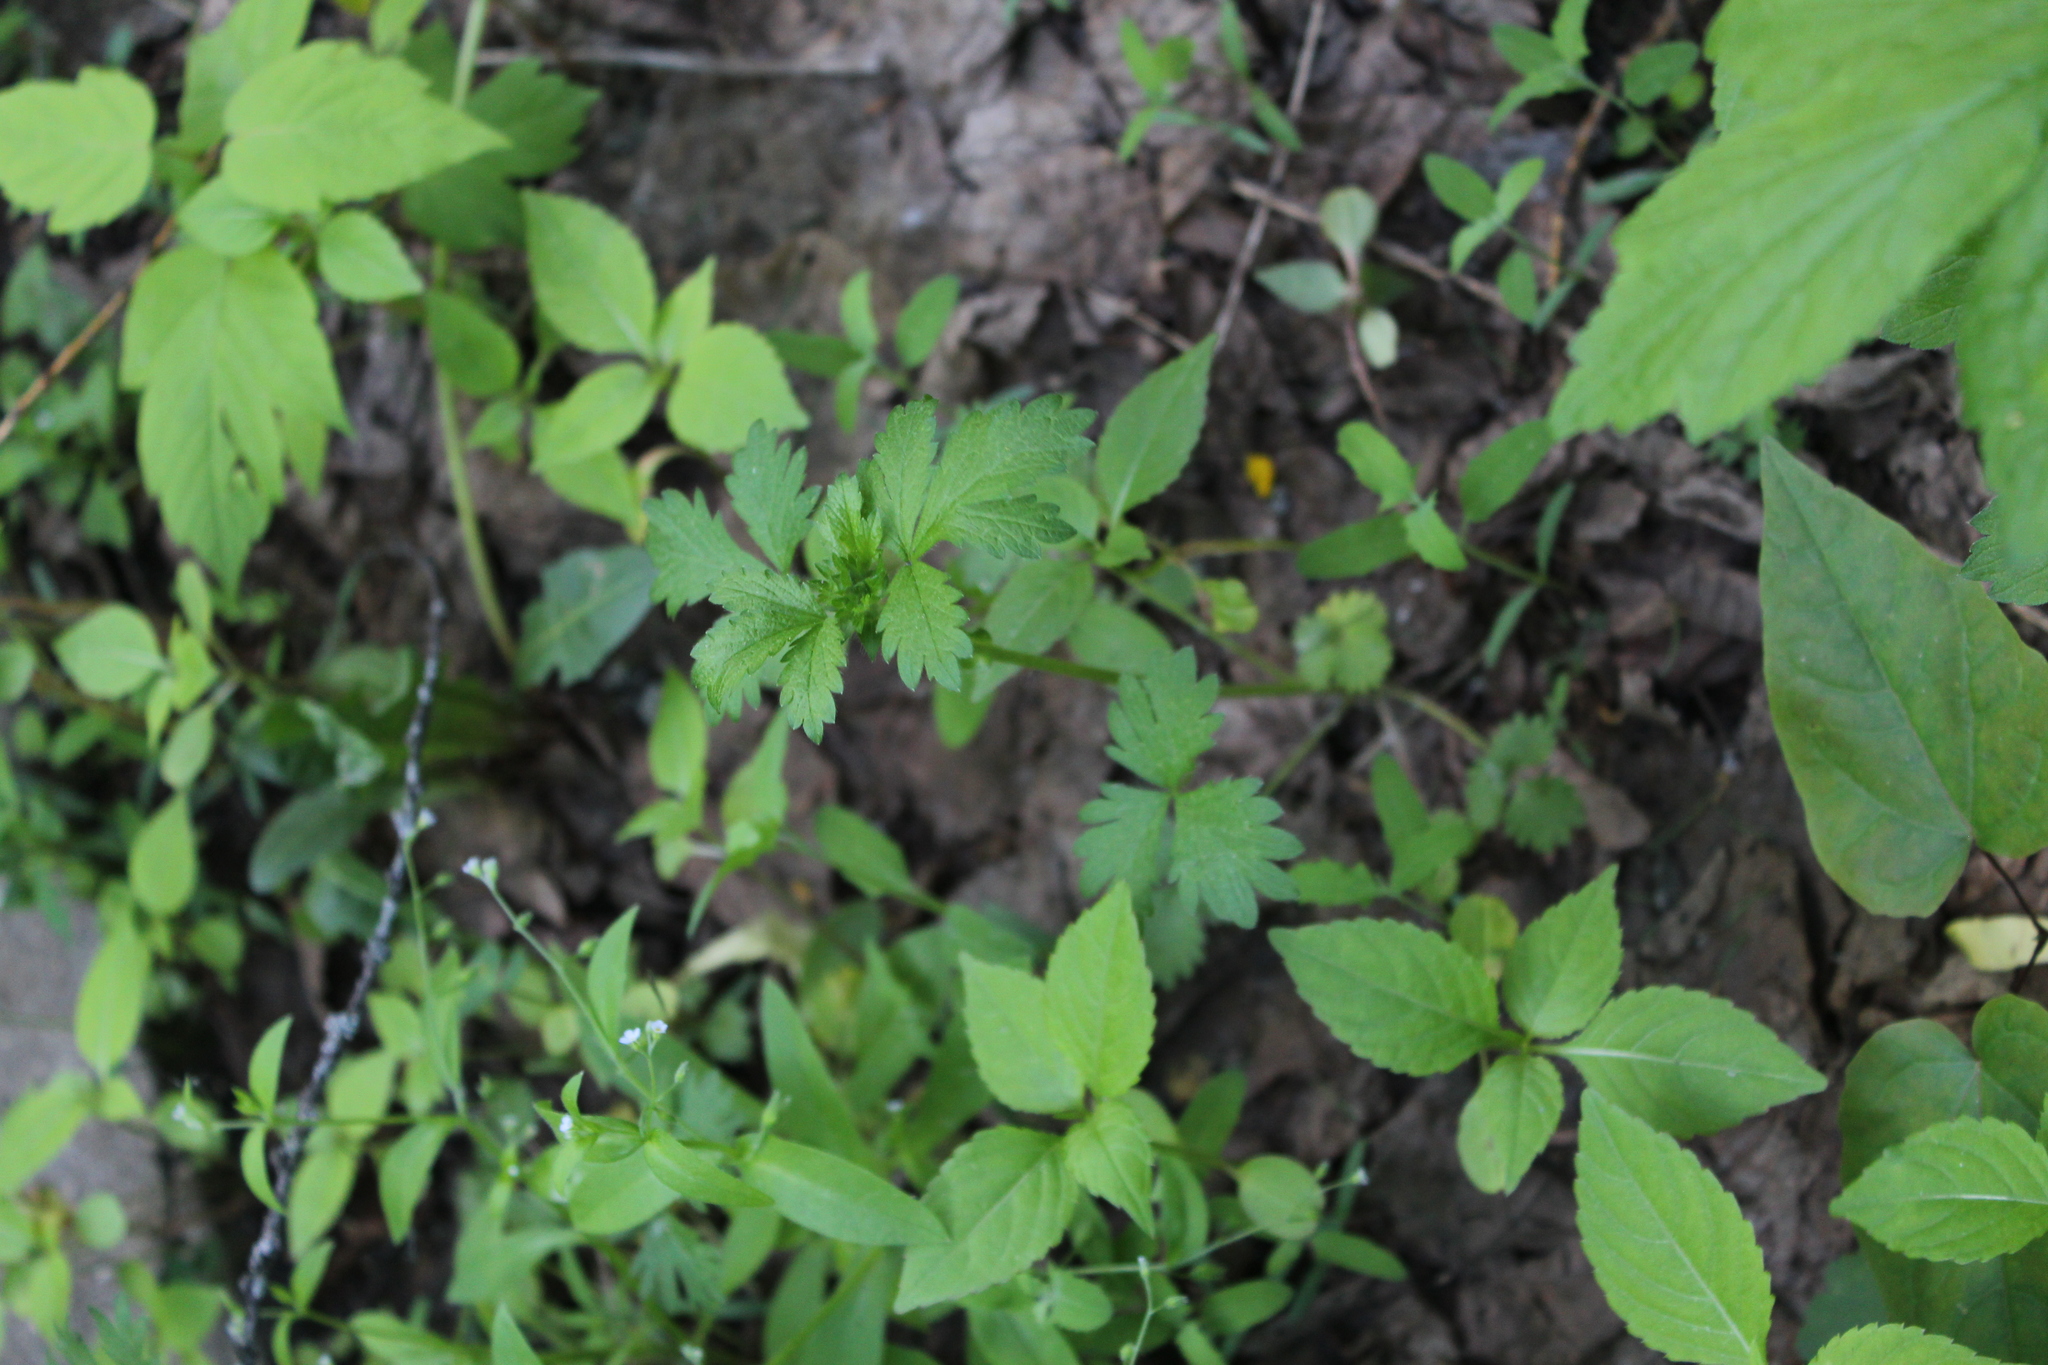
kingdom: Plantae
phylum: Tracheophyta
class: Magnoliopsida
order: Rosales
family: Rosaceae
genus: Potentilla
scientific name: Potentilla norvegica
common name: Ternate-leaved cinquefoil
